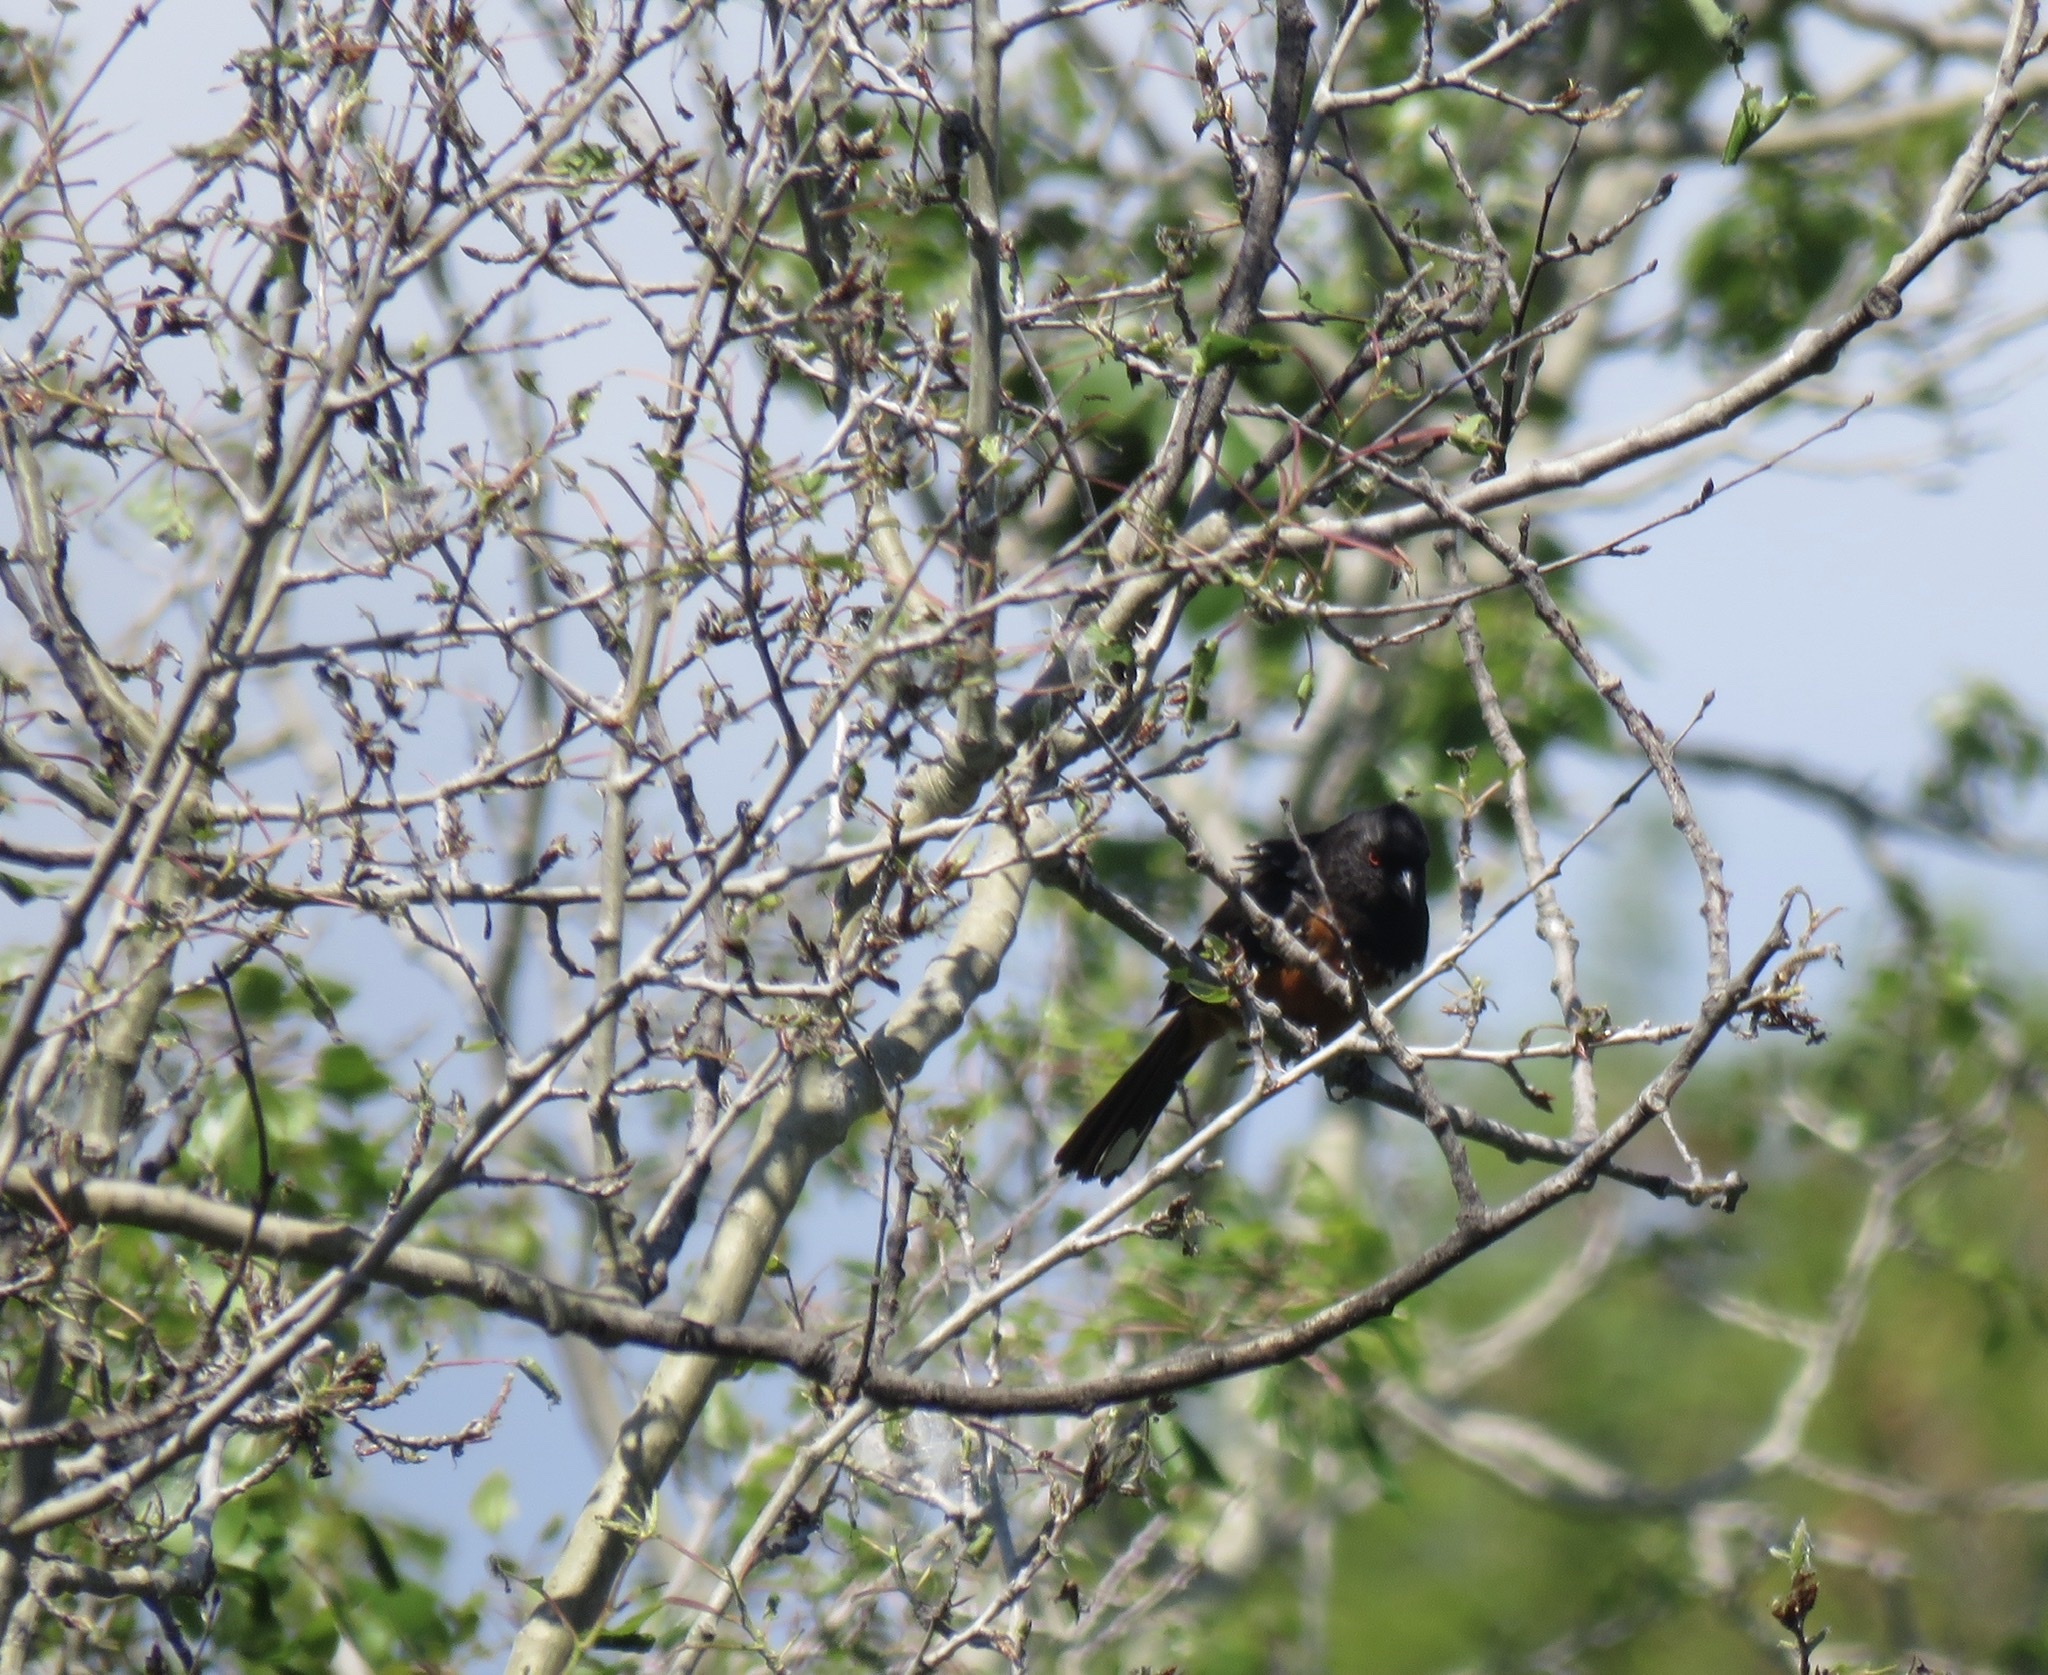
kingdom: Animalia
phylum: Chordata
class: Aves
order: Passeriformes
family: Passerellidae
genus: Pipilo
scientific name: Pipilo maculatus
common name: Spotted towhee
